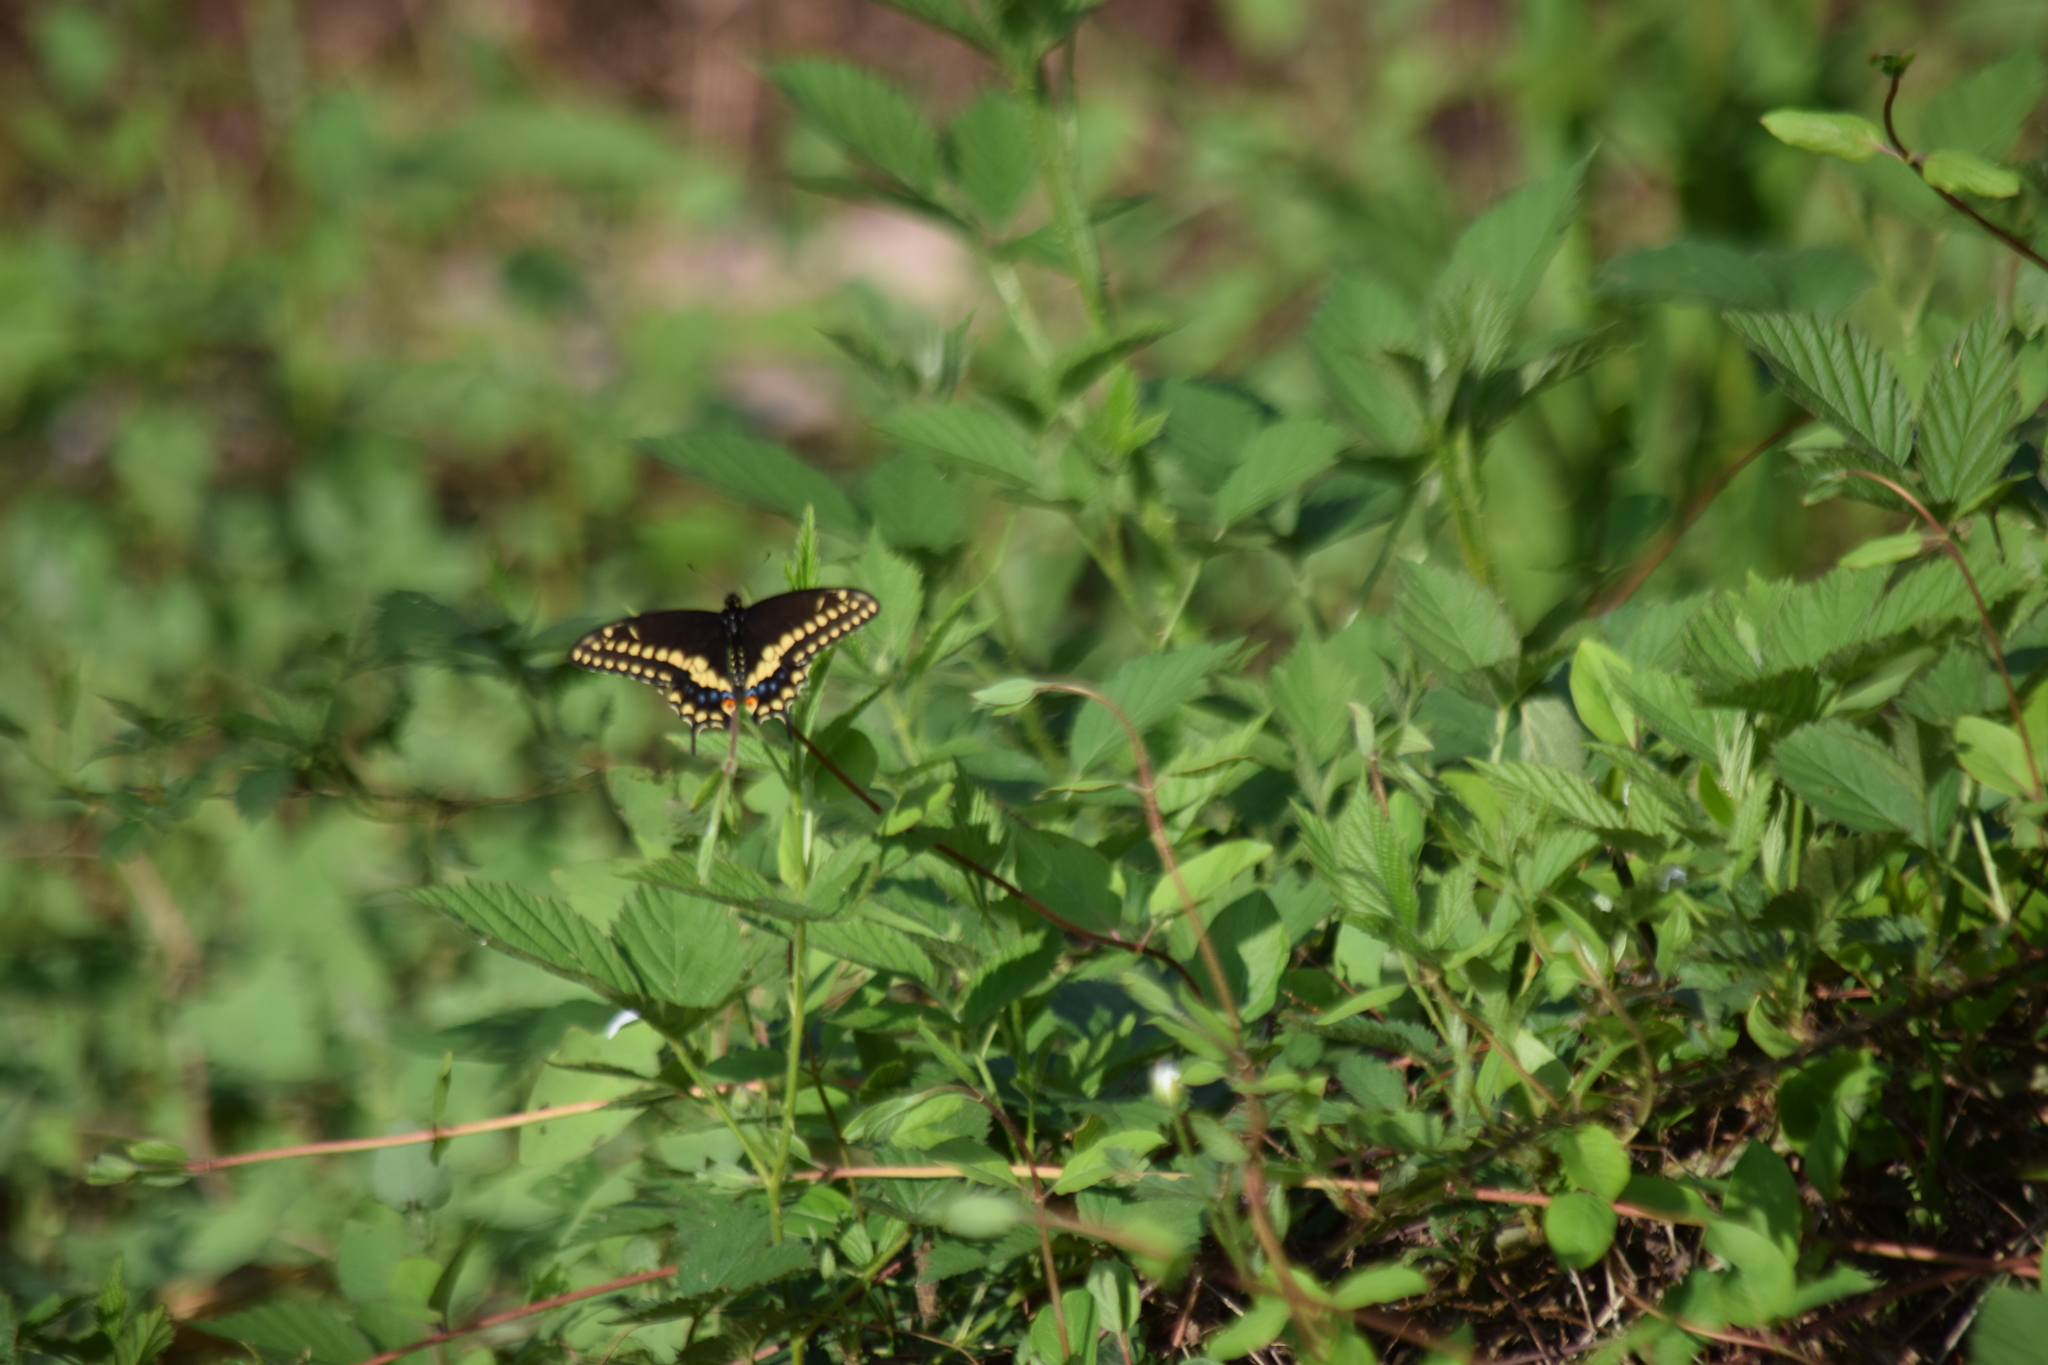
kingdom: Animalia
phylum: Arthropoda
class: Insecta
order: Lepidoptera
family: Papilionidae
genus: Papilio
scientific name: Papilio polyxenes
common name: Black swallowtail
